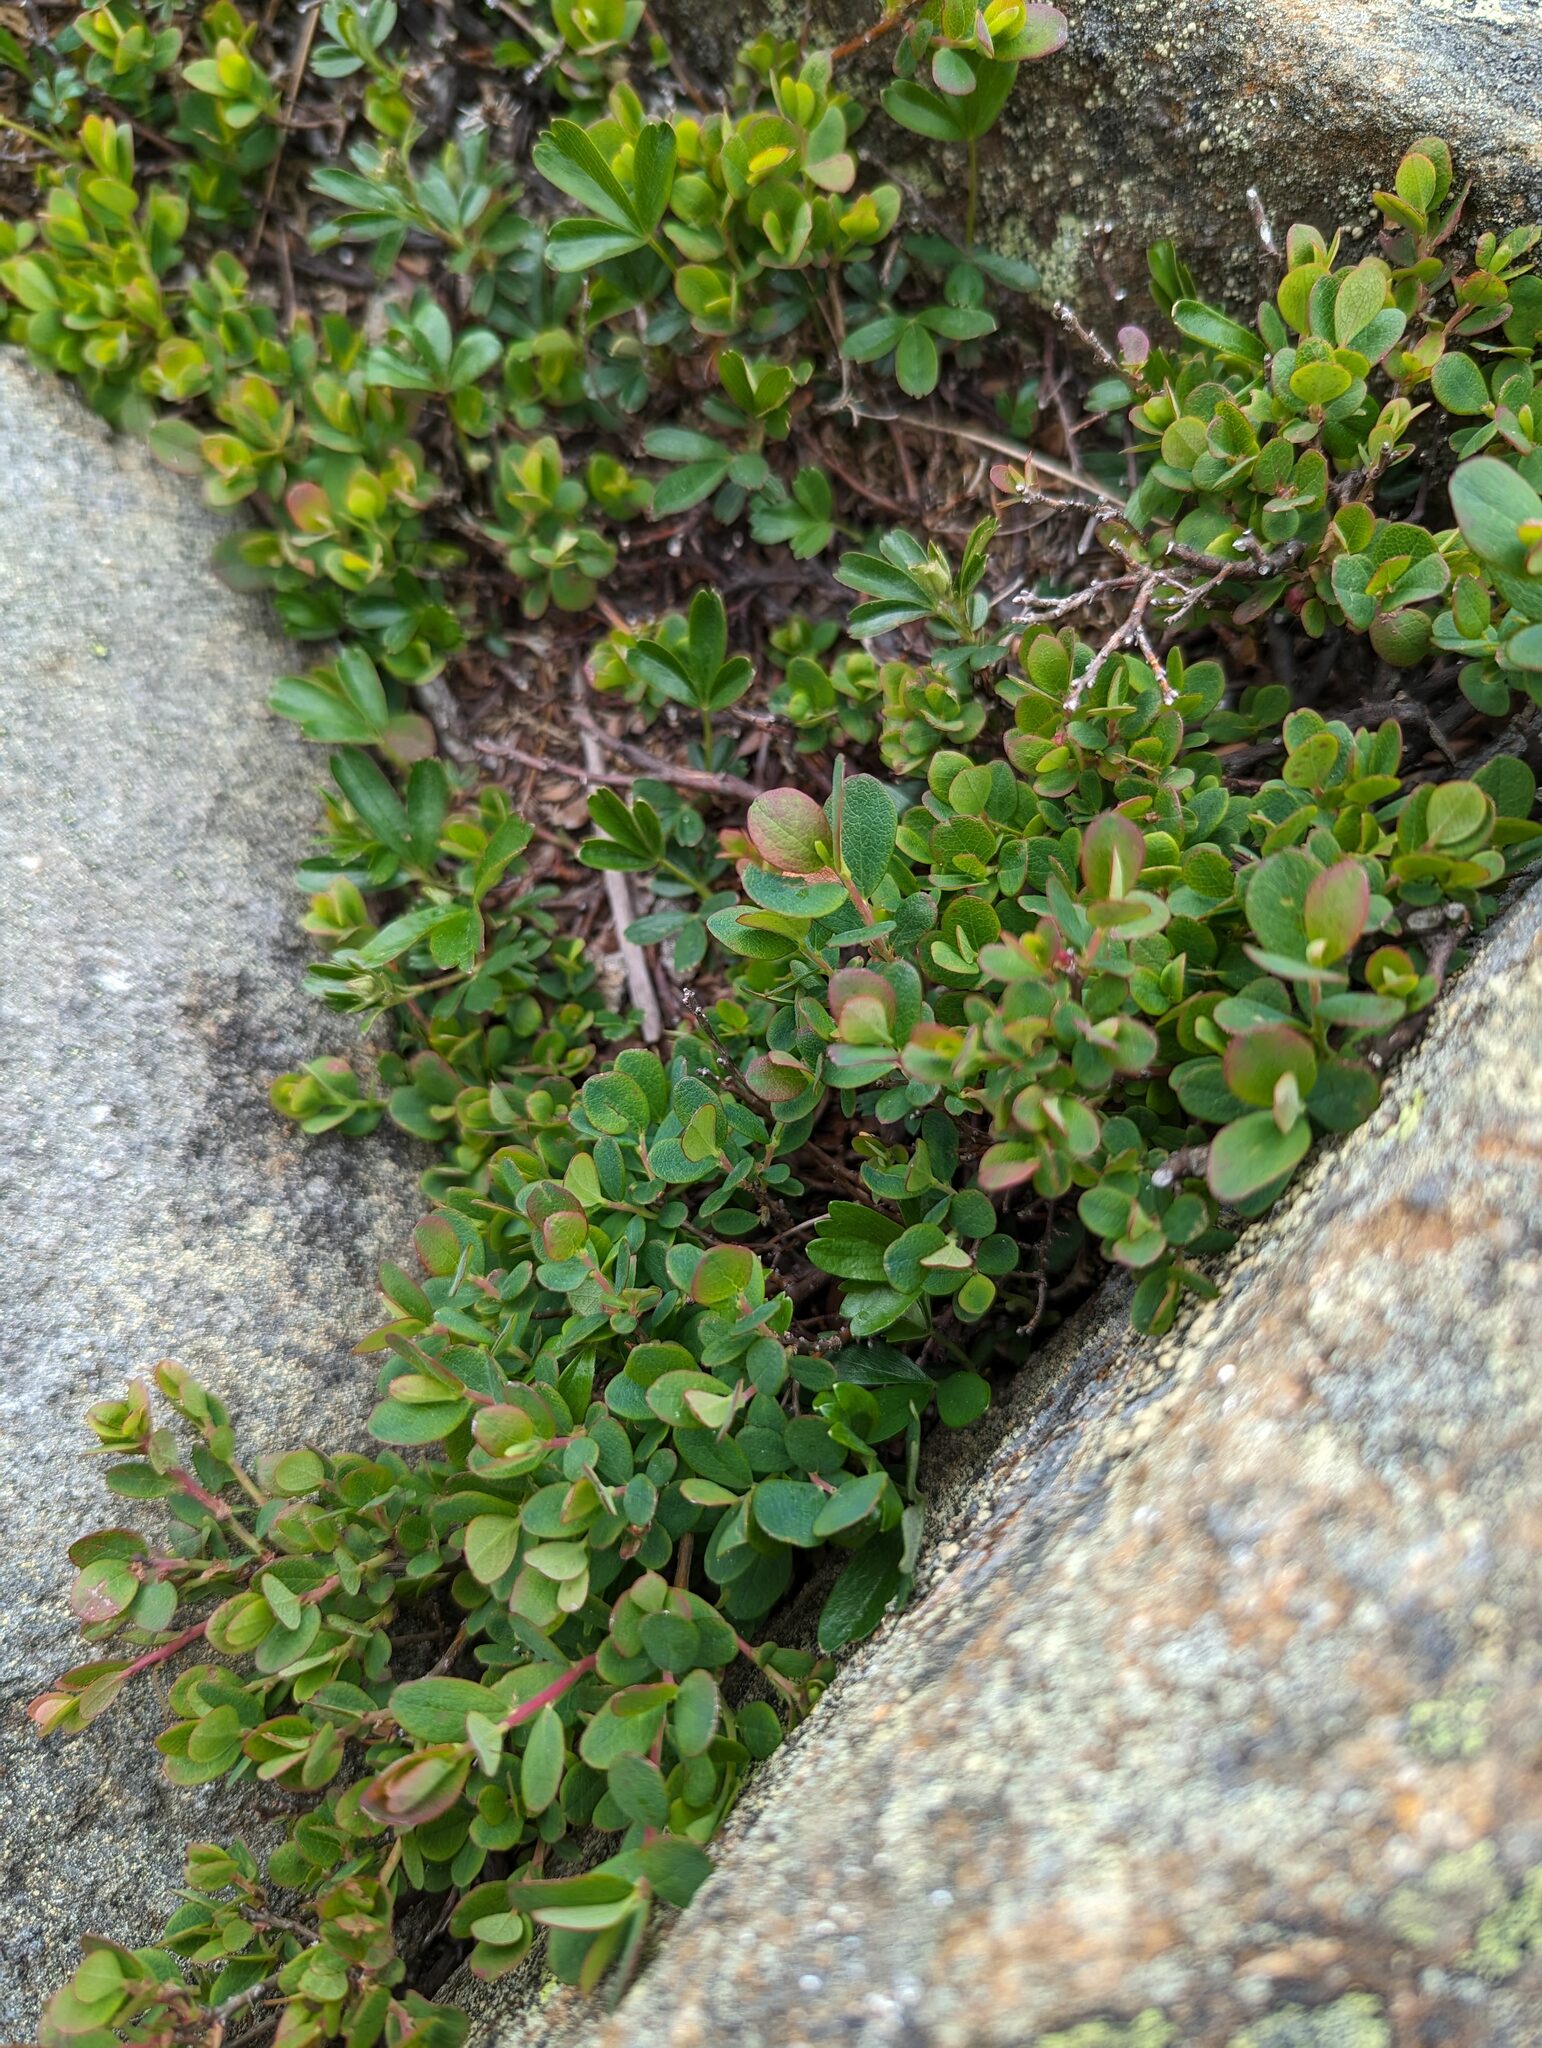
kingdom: Plantae
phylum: Tracheophyta
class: Magnoliopsida
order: Ericales
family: Ericaceae
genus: Vaccinium
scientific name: Vaccinium uliginosum
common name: Bog bilberry
